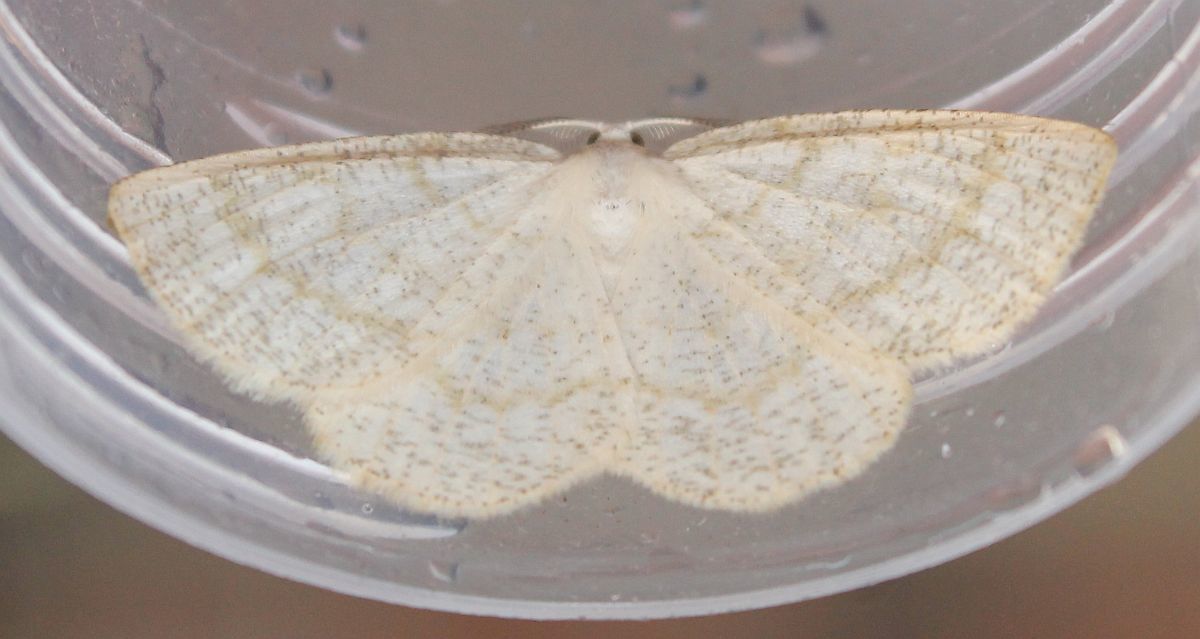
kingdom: Animalia
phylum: Arthropoda
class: Insecta
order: Lepidoptera
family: Geometridae
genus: Cabera
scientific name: Cabera exanthemata
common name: Common wave
